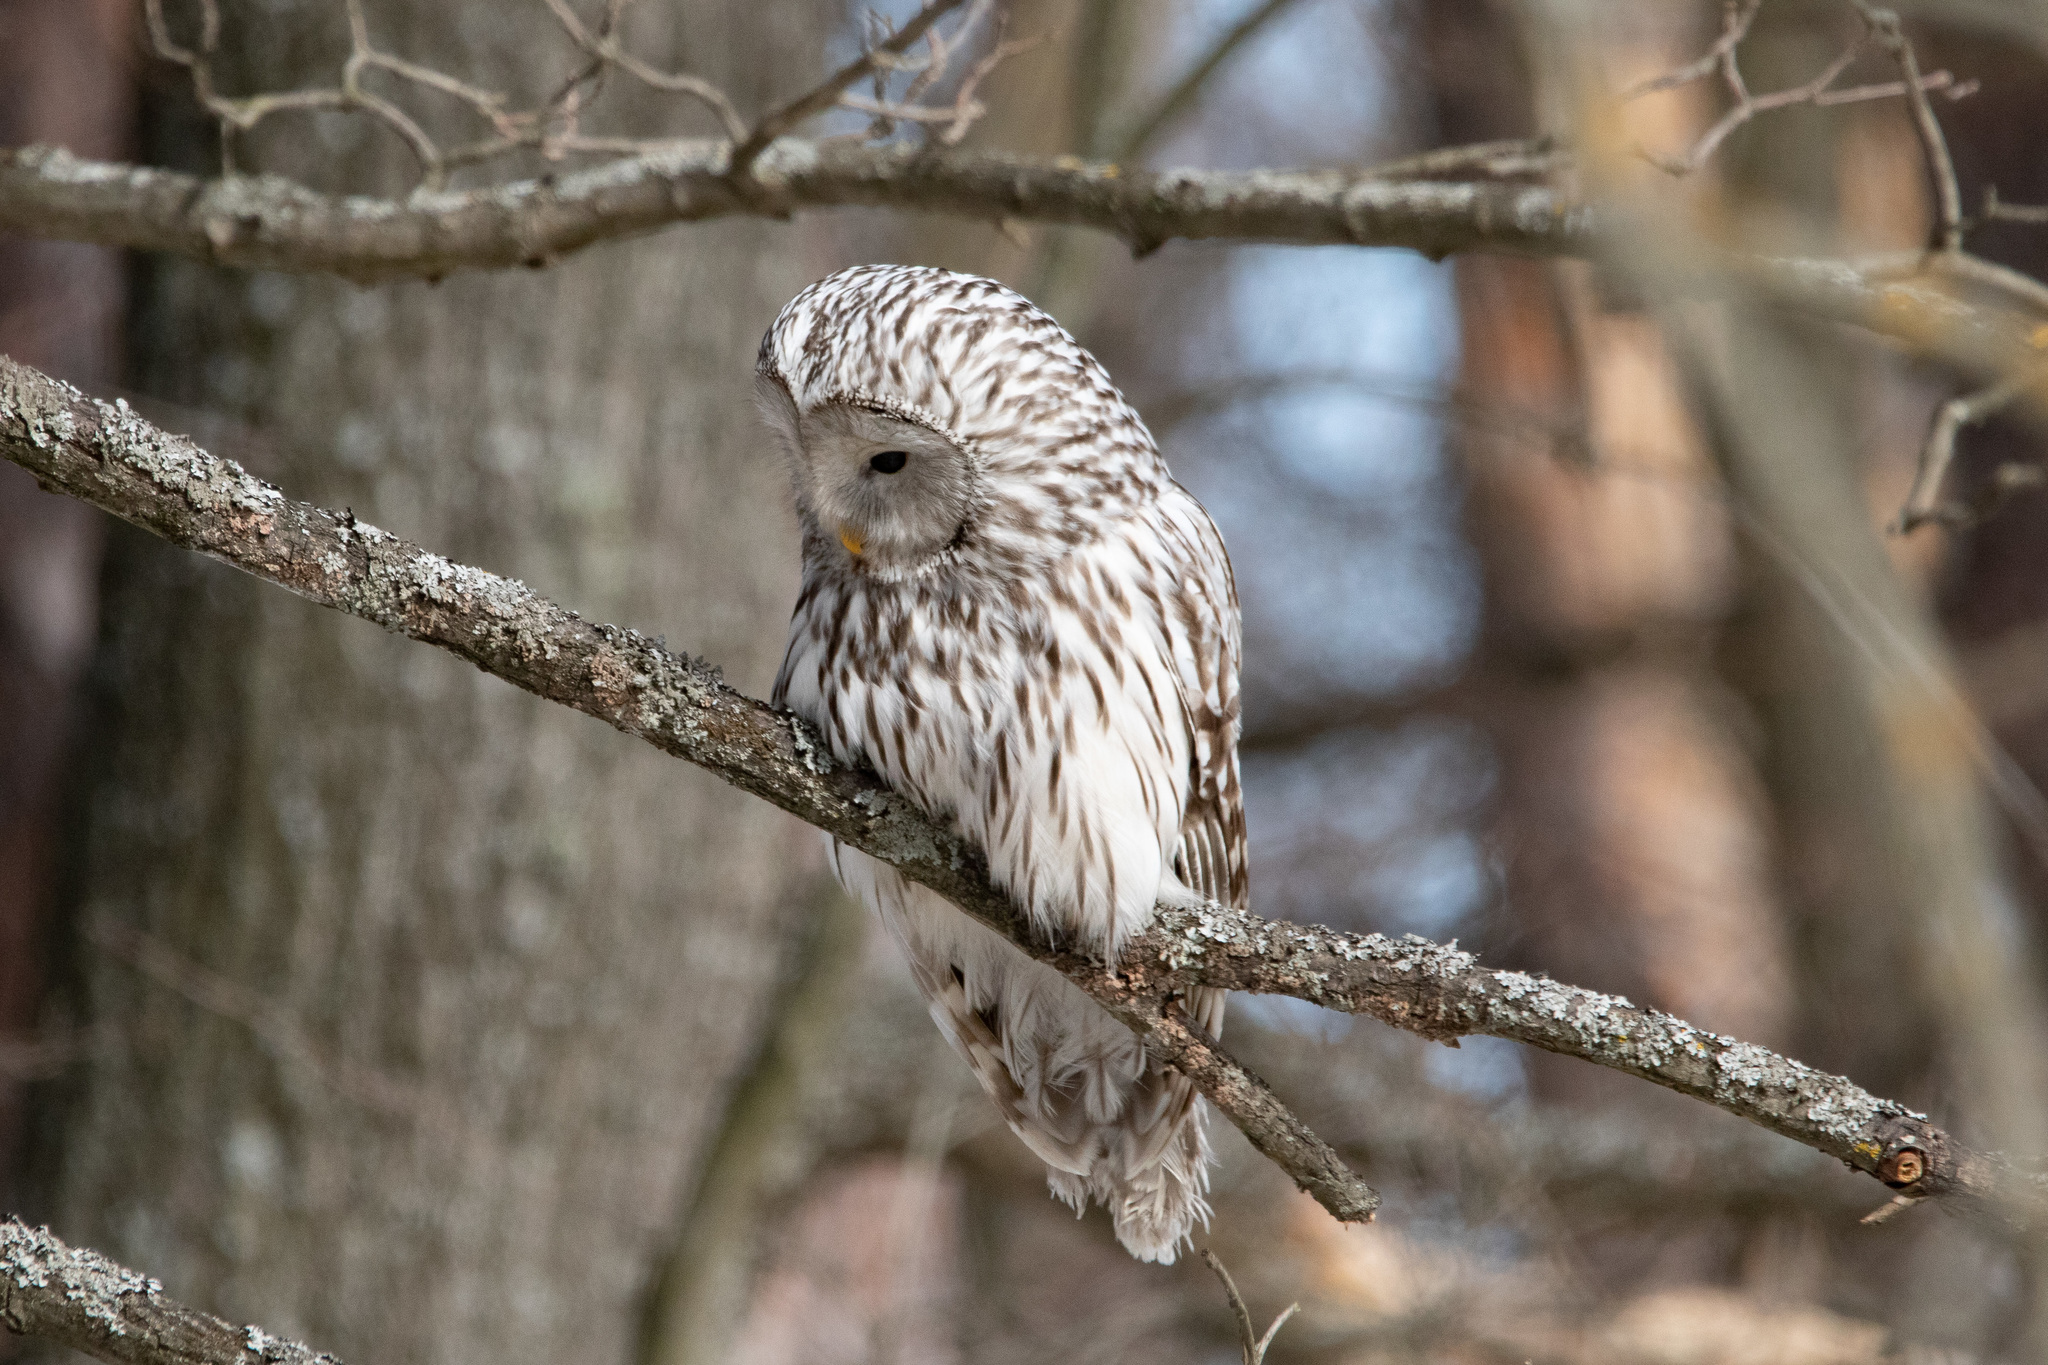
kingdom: Animalia
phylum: Chordata
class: Aves
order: Strigiformes
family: Strigidae
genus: Strix
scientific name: Strix uralensis
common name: Ural owl
